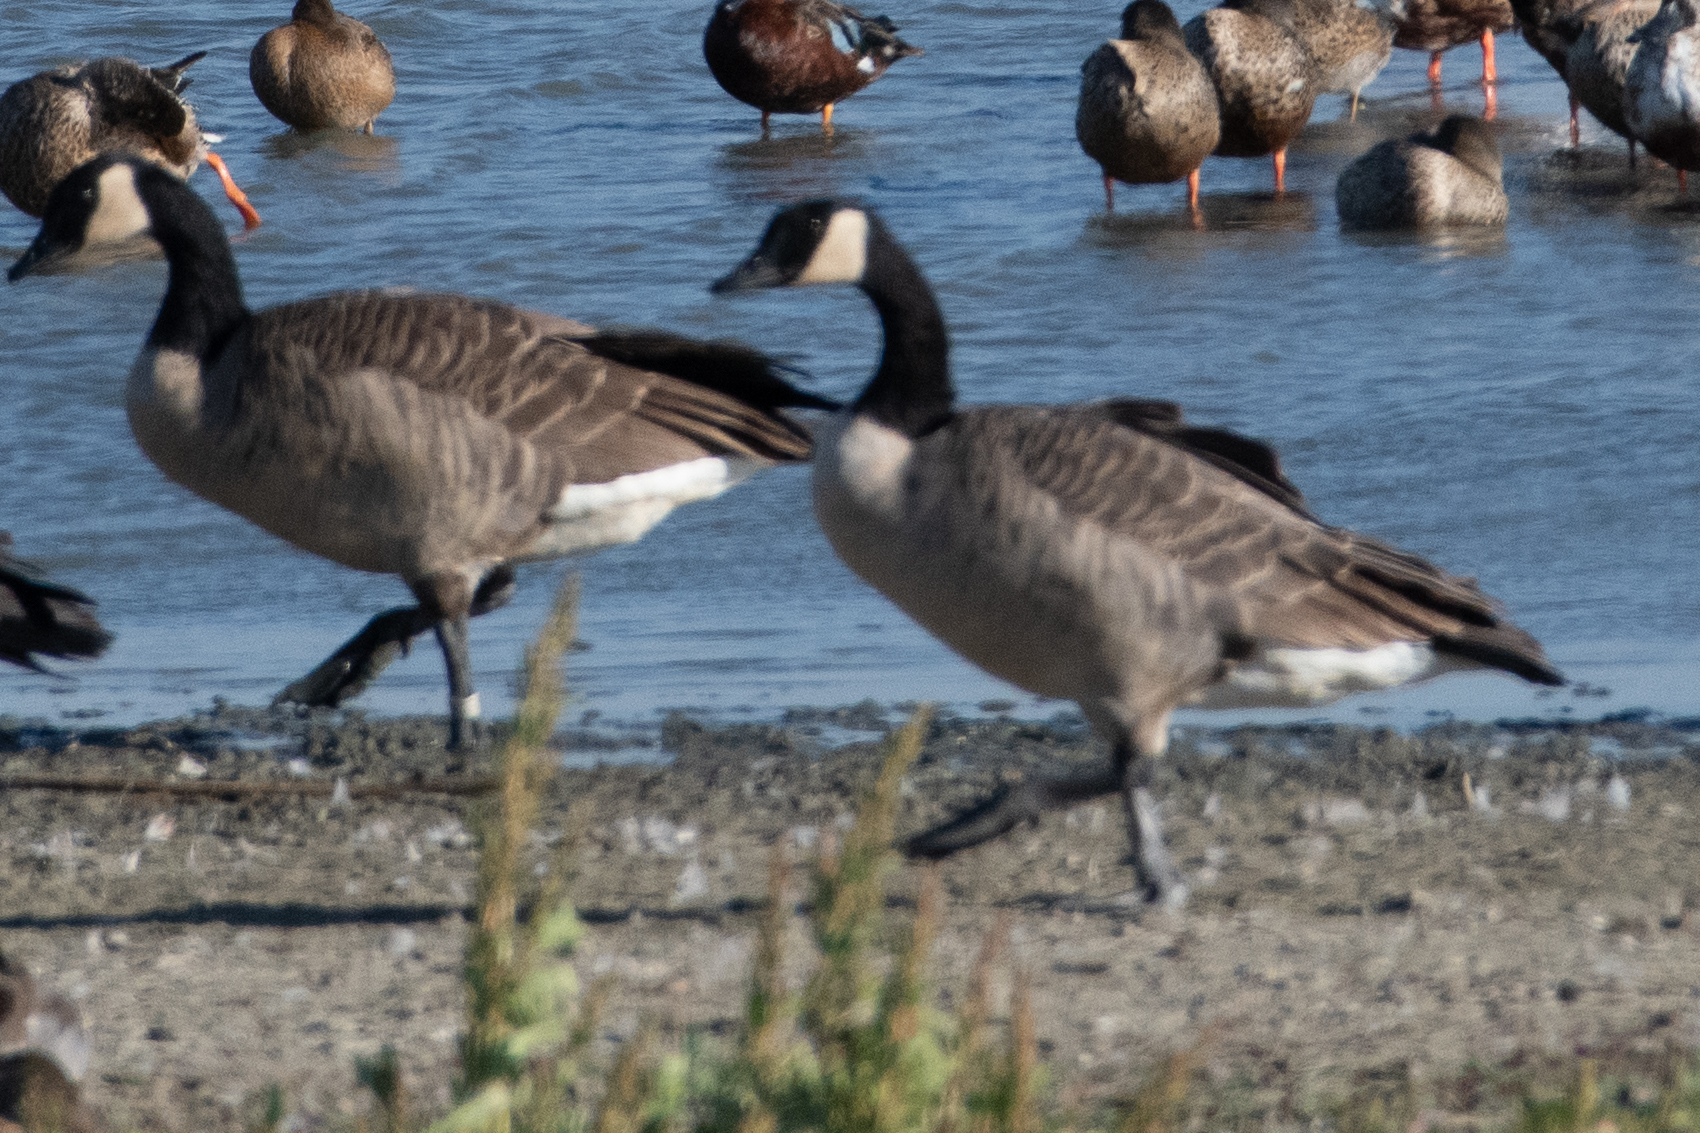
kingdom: Animalia
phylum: Chordata
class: Aves
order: Anseriformes
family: Anatidae
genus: Branta
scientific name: Branta canadensis
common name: Canada goose
